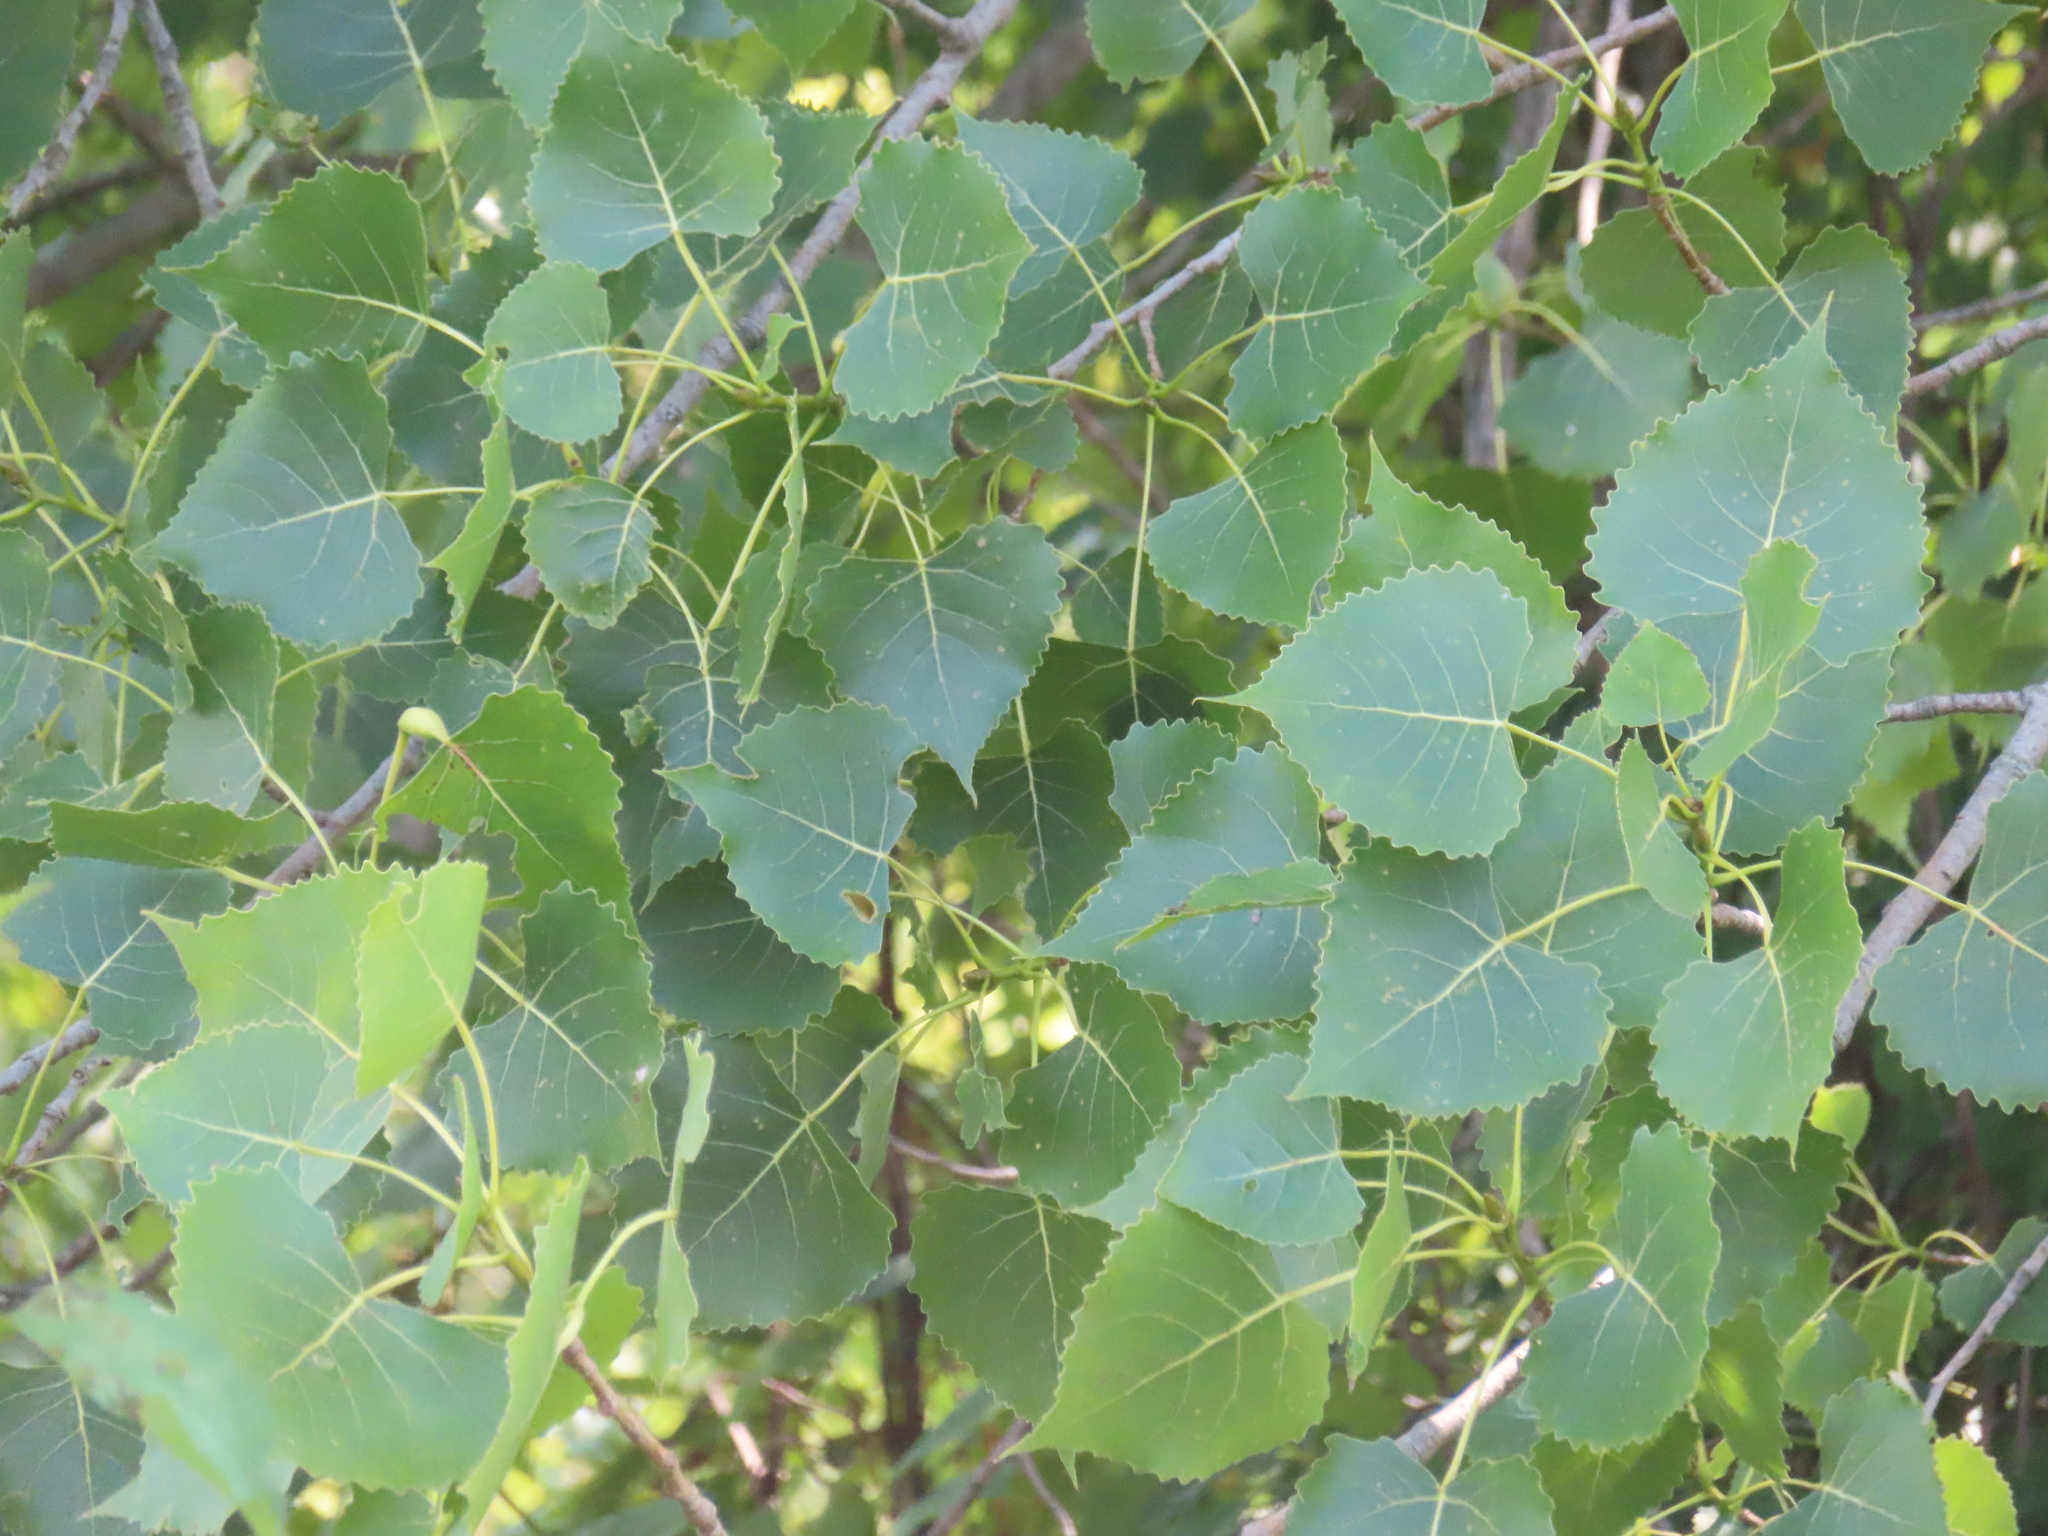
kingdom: Plantae
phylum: Tracheophyta
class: Magnoliopsida
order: Malpighiales
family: Salicaceae
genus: Populus
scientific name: Populus deltoides
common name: Eastern cottonwood
